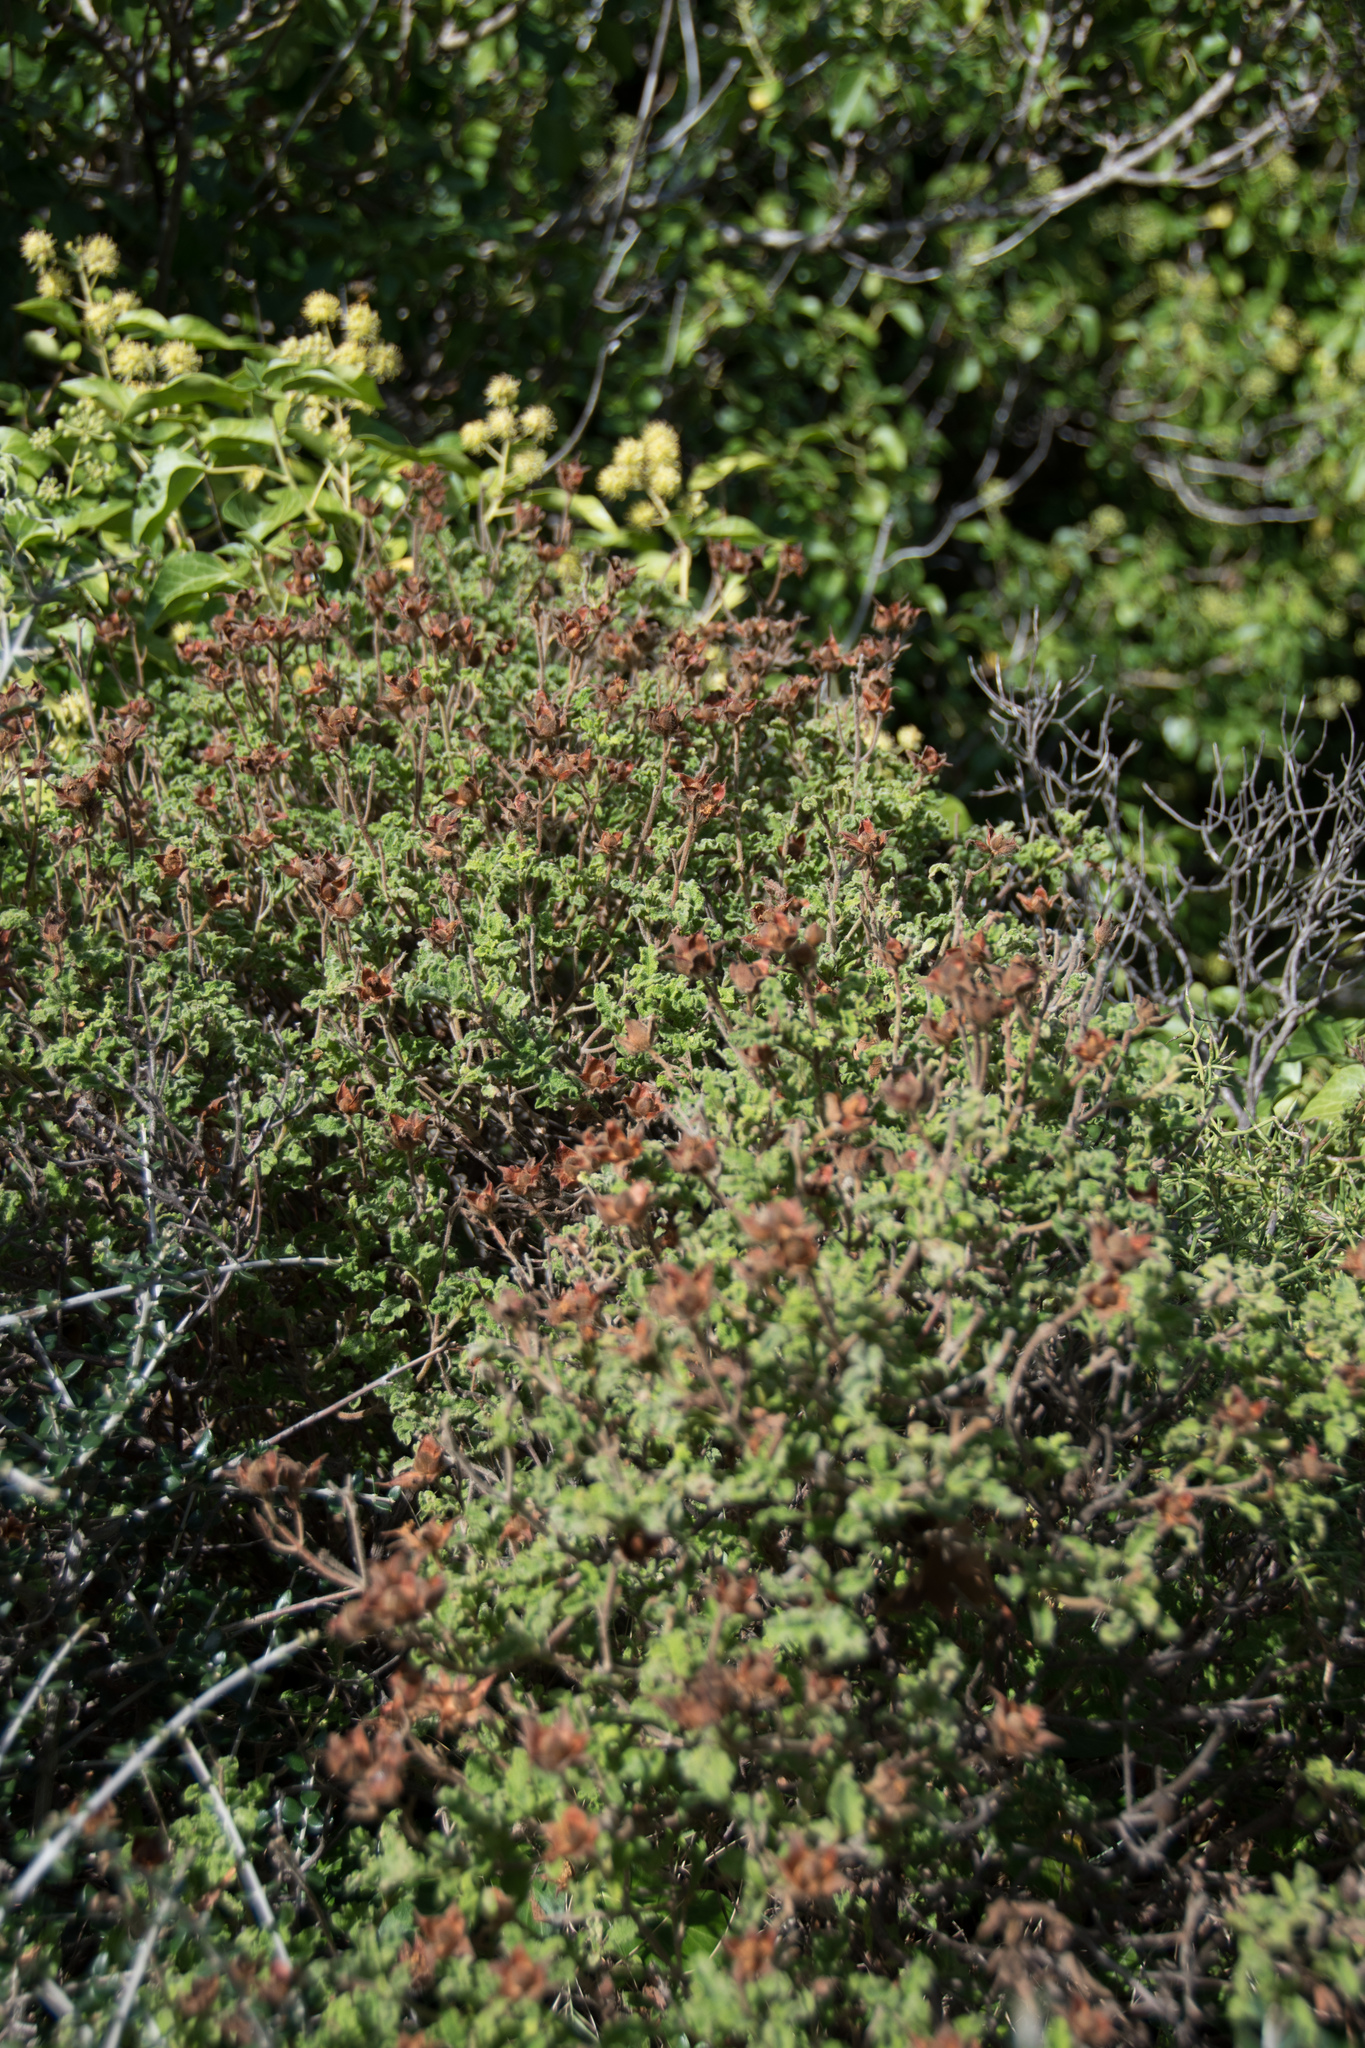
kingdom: Plantae
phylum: Tracheophyta
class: Magnoliopsida
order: Malvales
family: Cistaceae
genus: Cistus
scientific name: Cistus creticus
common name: Cretan rockrose
